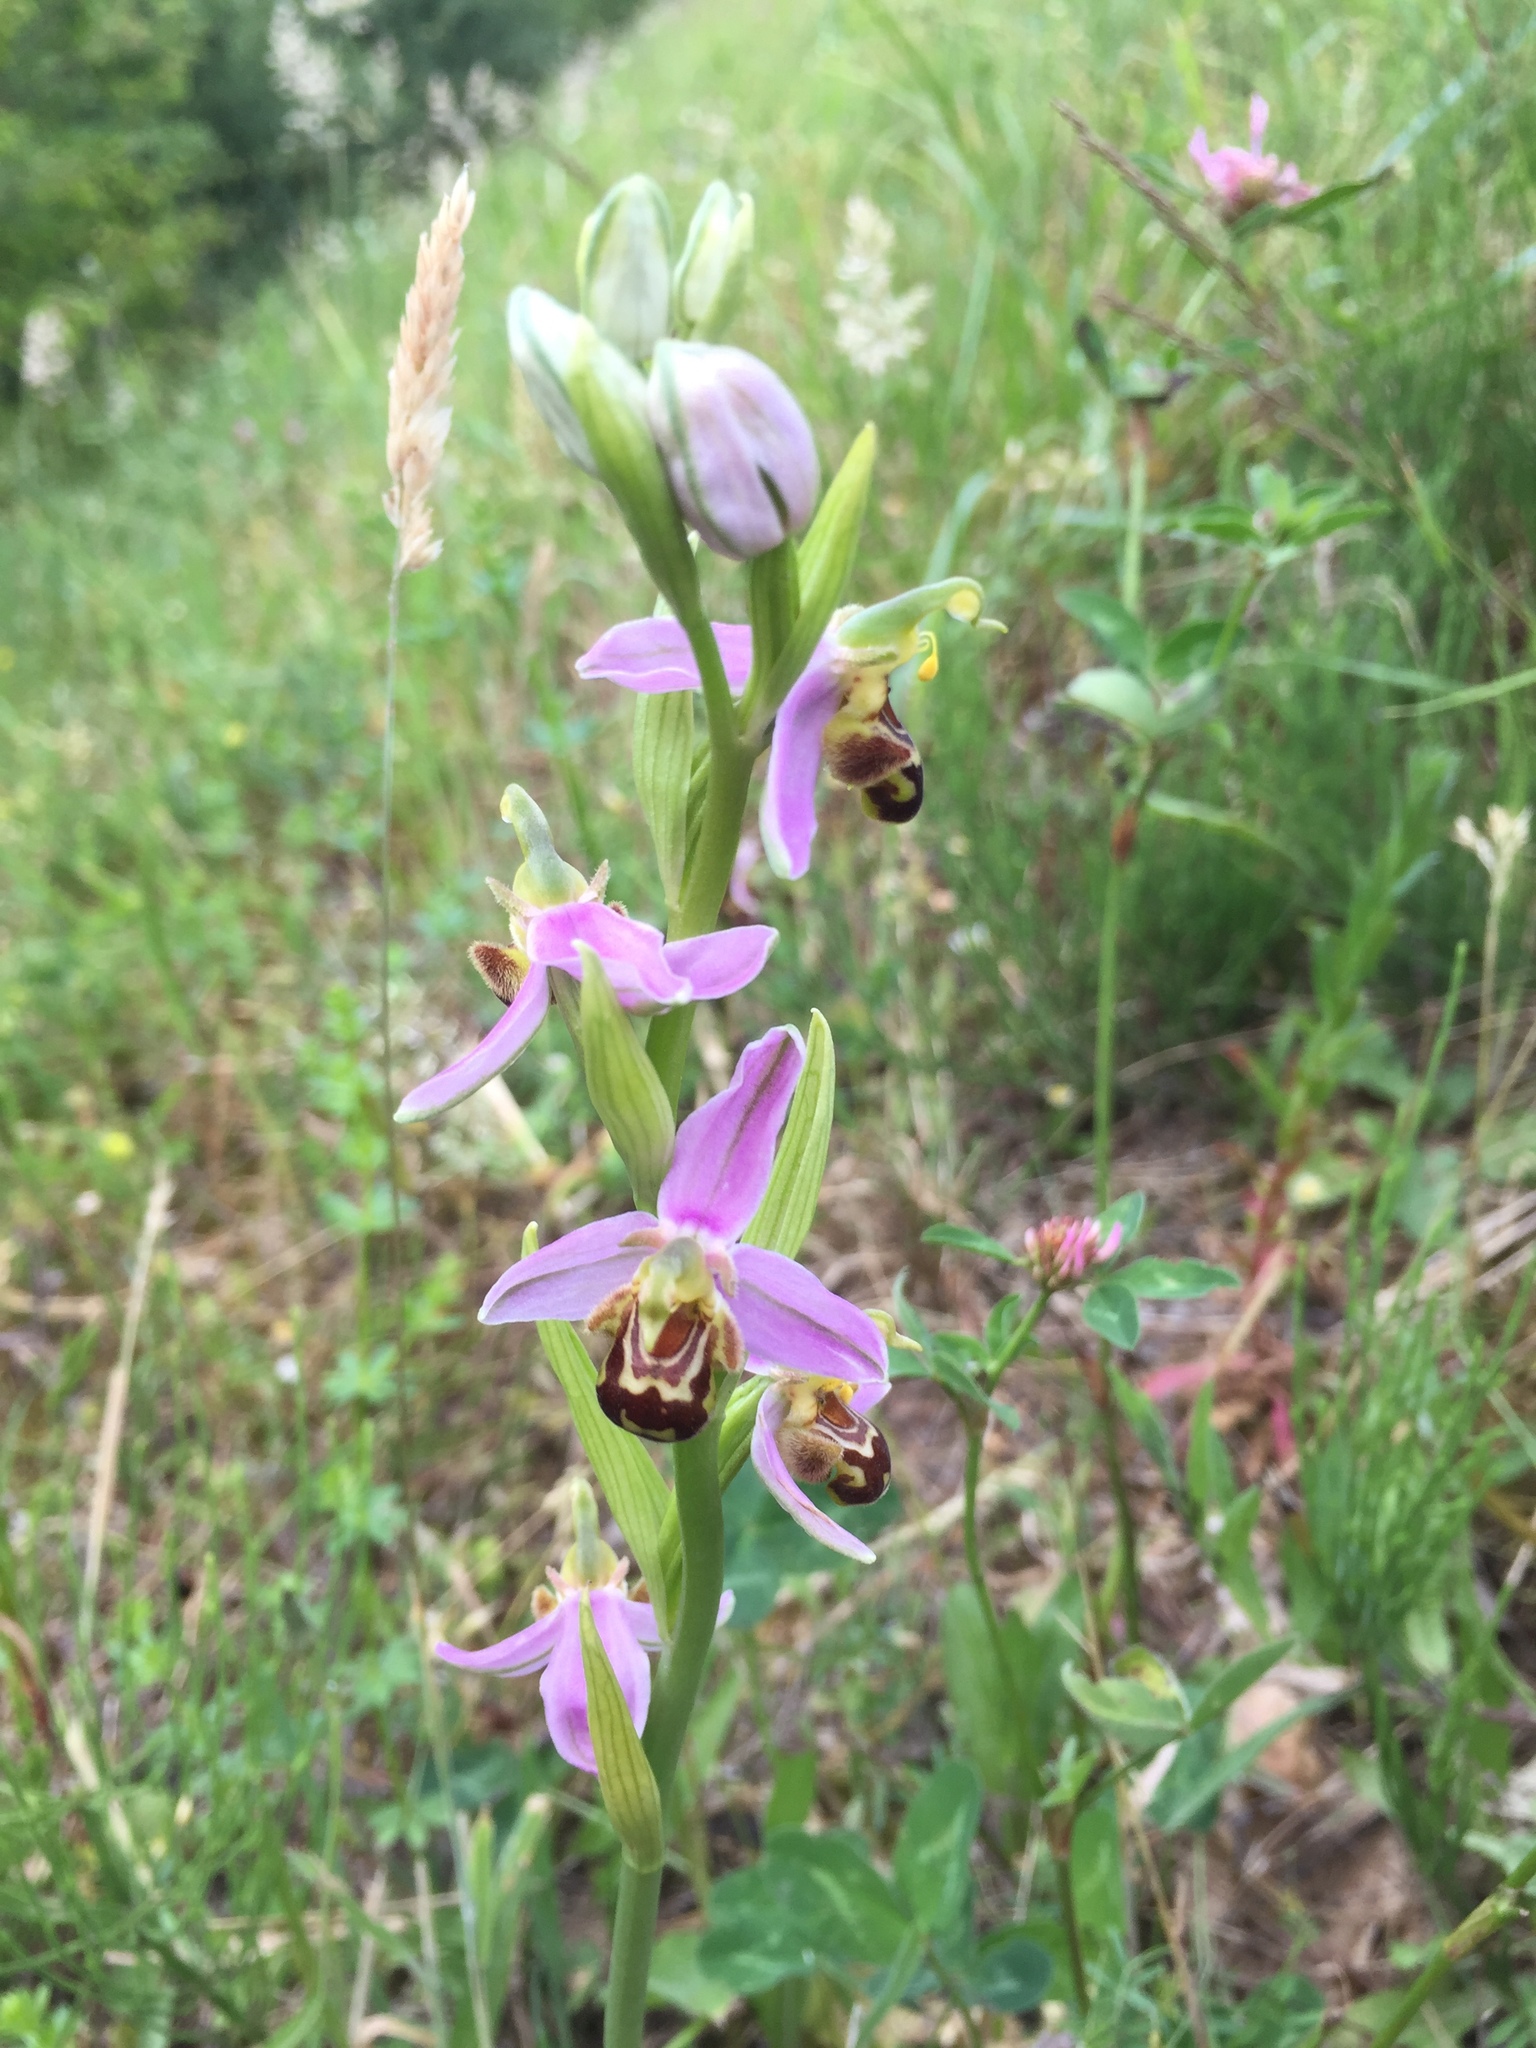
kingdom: Plantae
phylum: Tracheophyta
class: Liliopsida
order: Asparagales
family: Orchidaceae
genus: Ophrys
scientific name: Ophrys apifera
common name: Bee orchid
